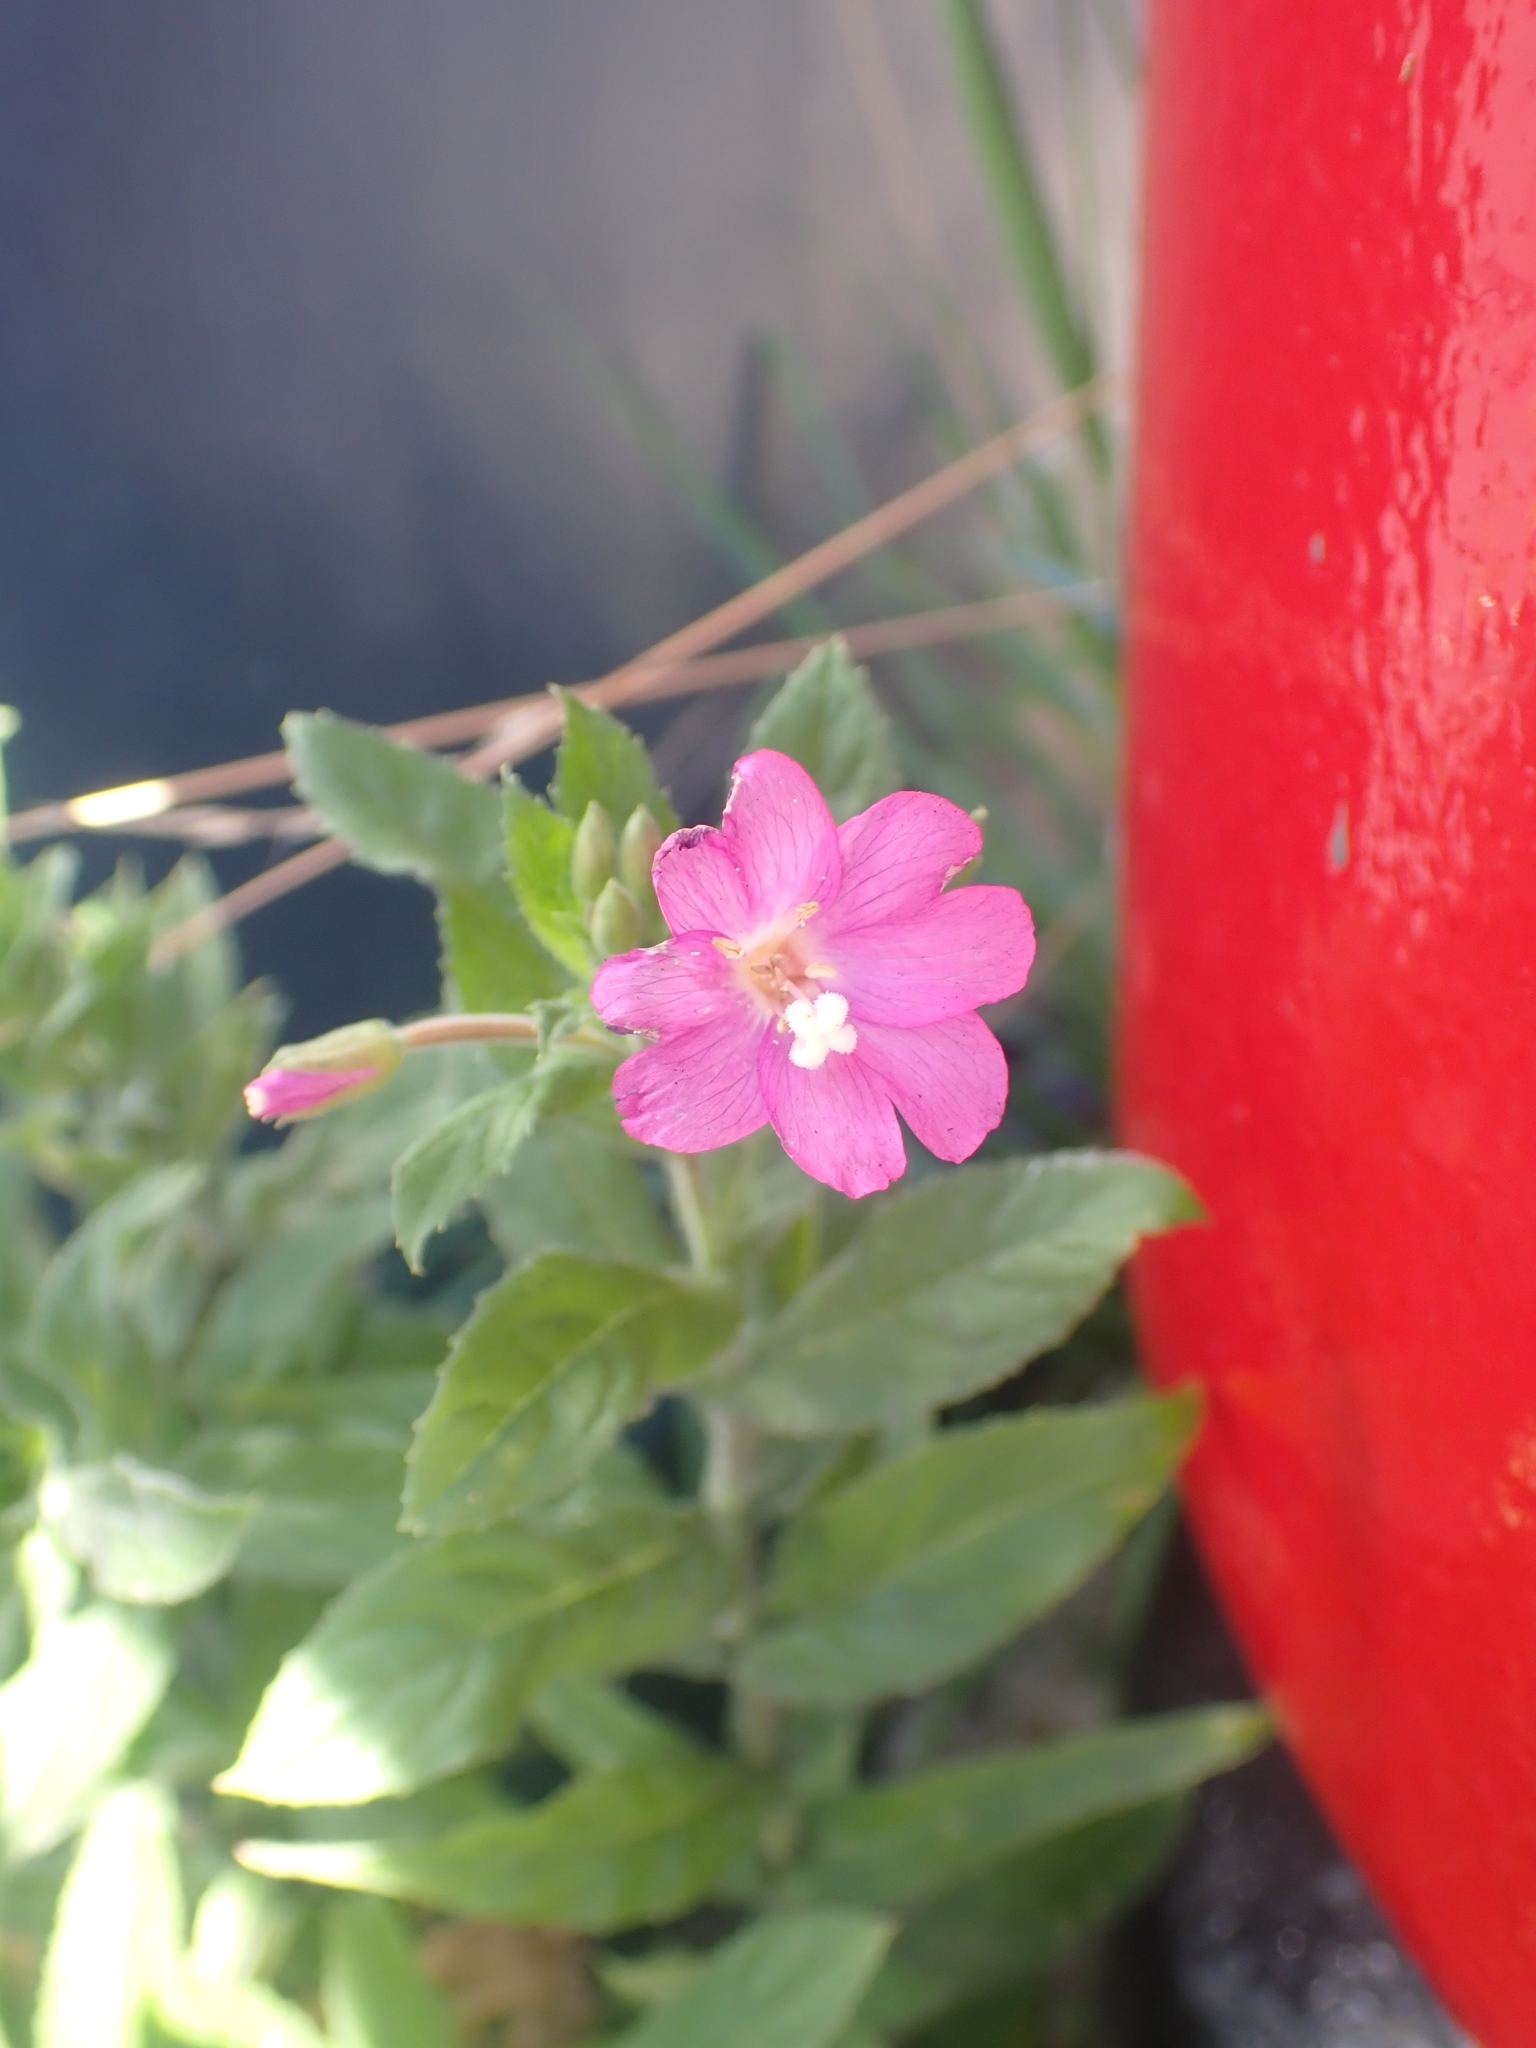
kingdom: Plantae
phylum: Tracheophyta
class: Magnoliopsida
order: Myrtales
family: Onagraceae
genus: Epilobium
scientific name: Epilobium hirsutum
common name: Great willowherb
